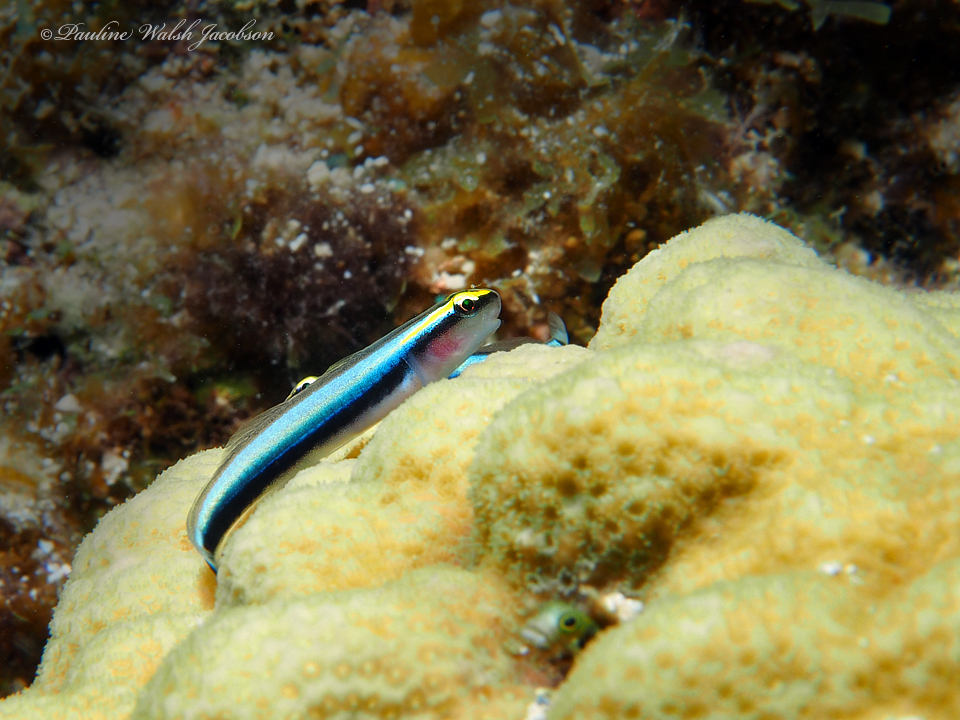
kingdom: Animalia
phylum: Chordata
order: Perciformes
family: Gobiidae
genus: Elacatinus
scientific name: Elacatinus evelynae
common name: Sharknose goby
